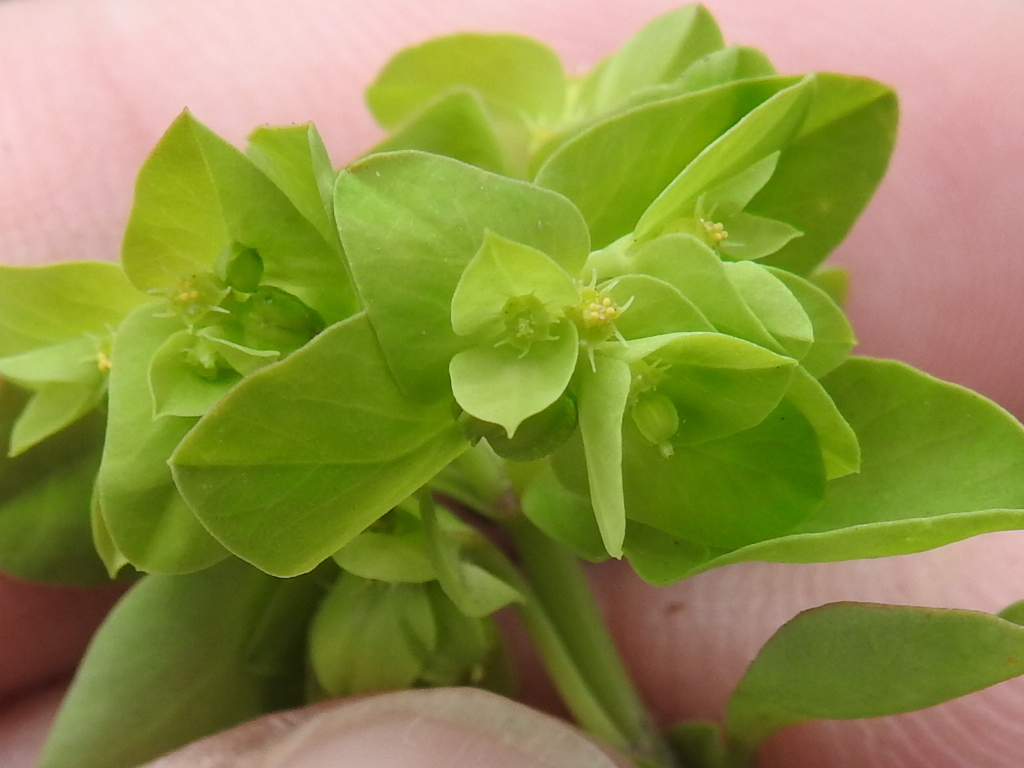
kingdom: Plantae
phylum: Tracheophyta
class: Magnoliopsida
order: Malpighiales
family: Euphorbiaceae
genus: Euphorbia
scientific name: Euphorbia peplus
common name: Petty spurge
